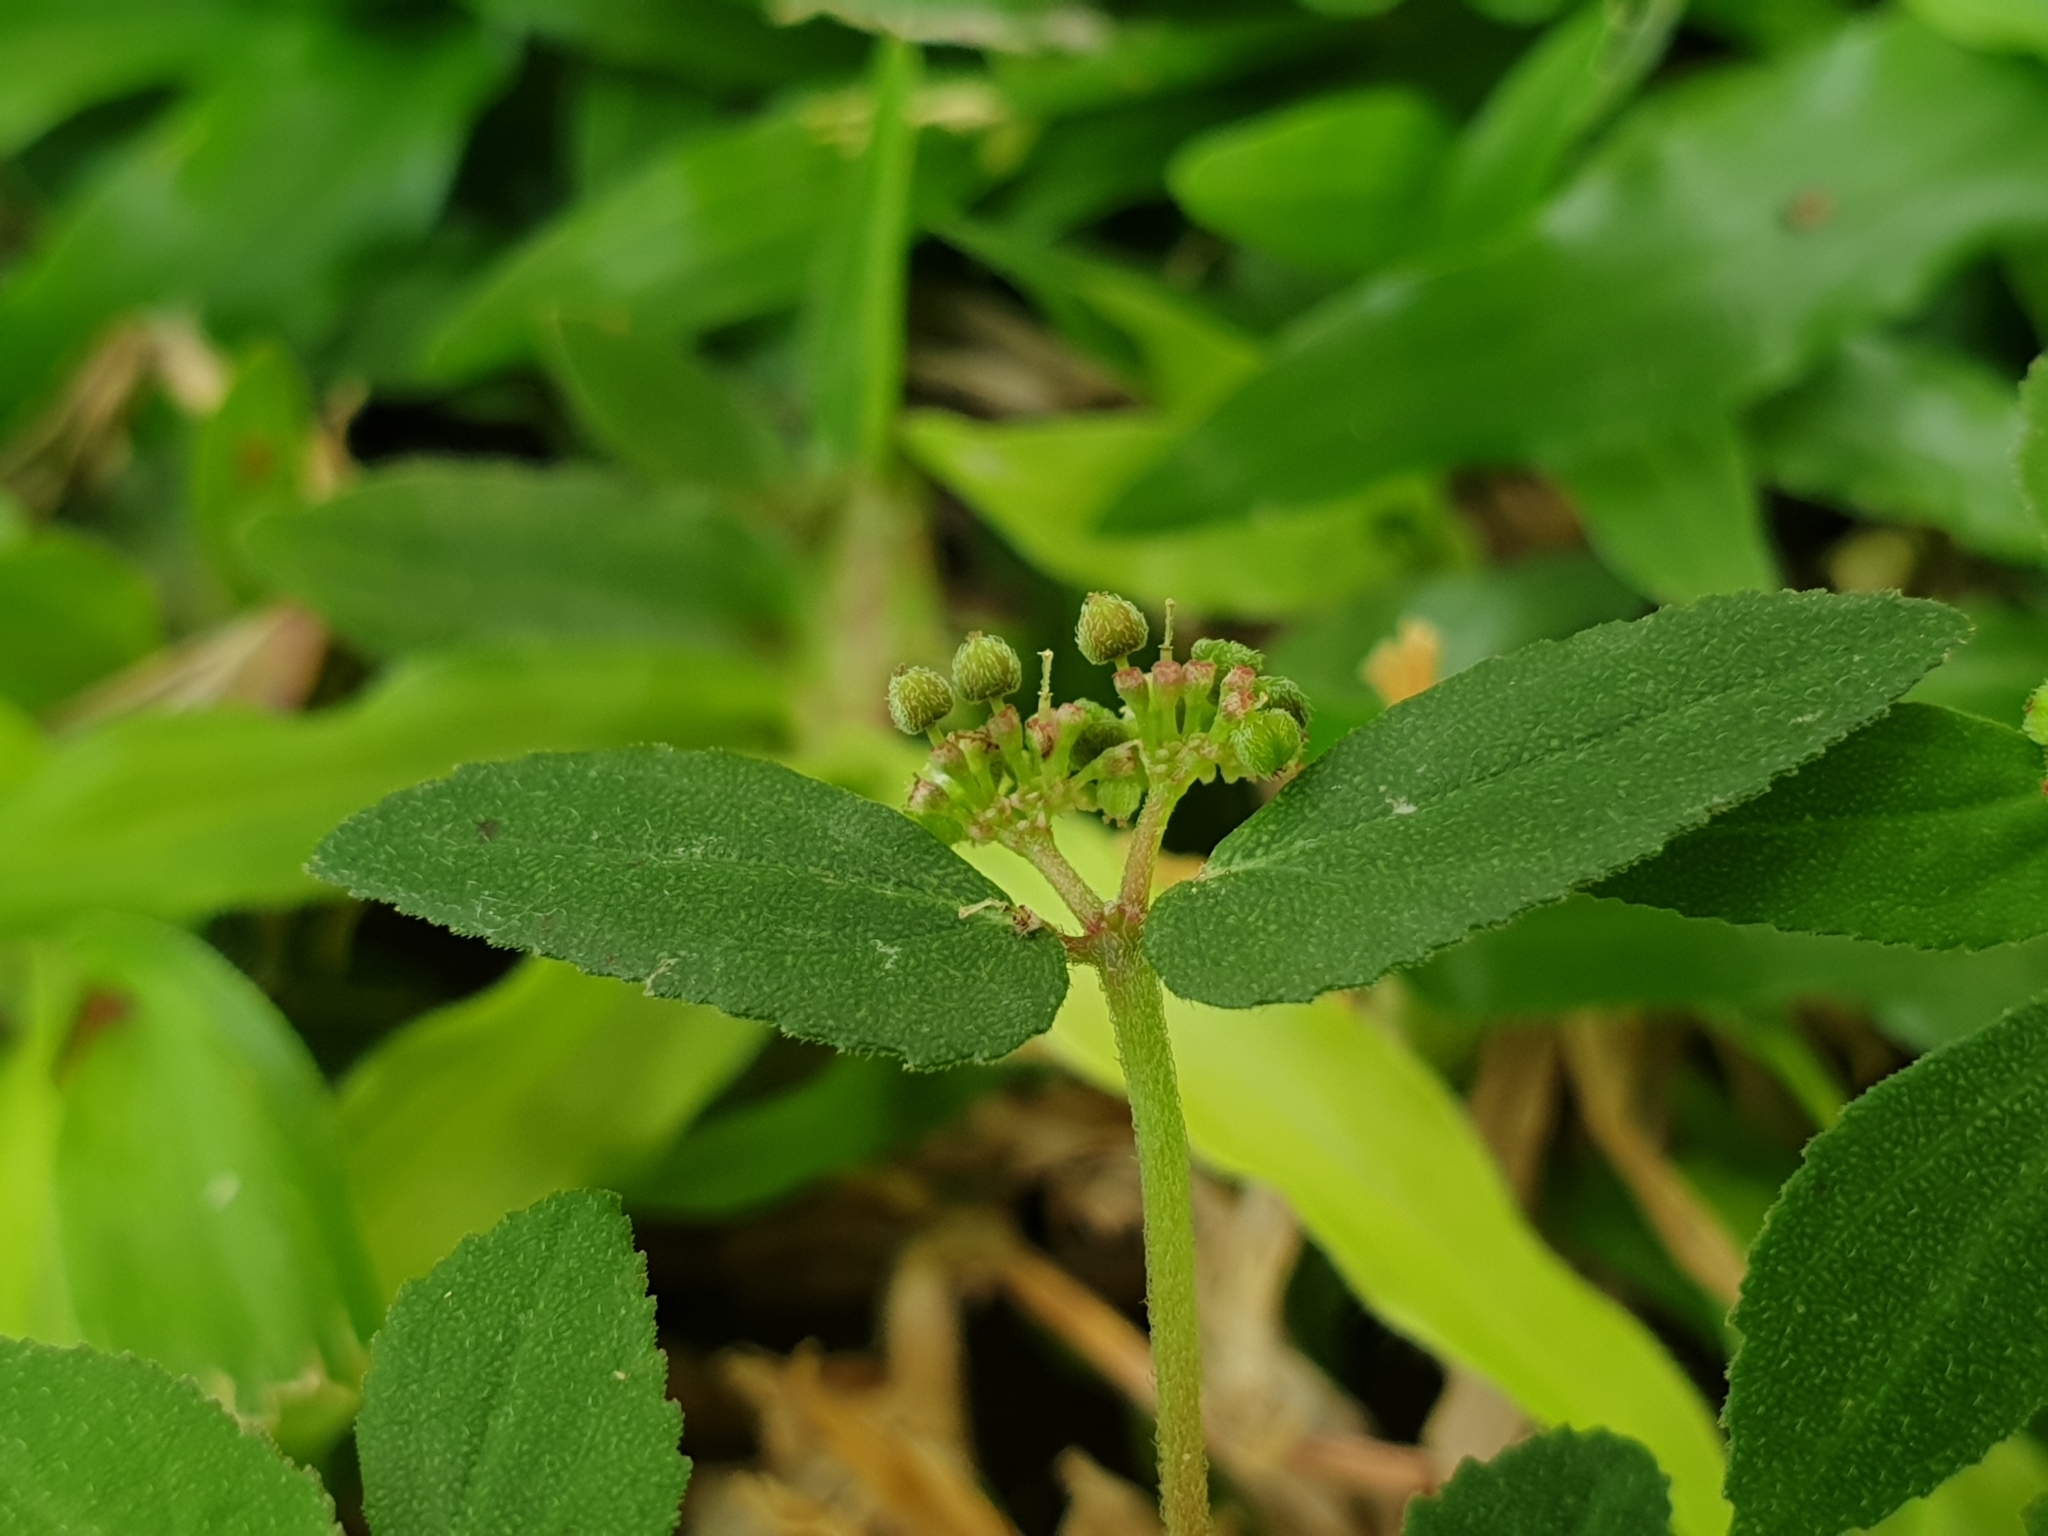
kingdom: Plantae
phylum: Tracheophyta
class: Magnoliopsida
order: Malpighiales
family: Euphorbiaceae
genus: Euphorbia
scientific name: Euphorbia ophthalmica
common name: Florida hammock sandmat
